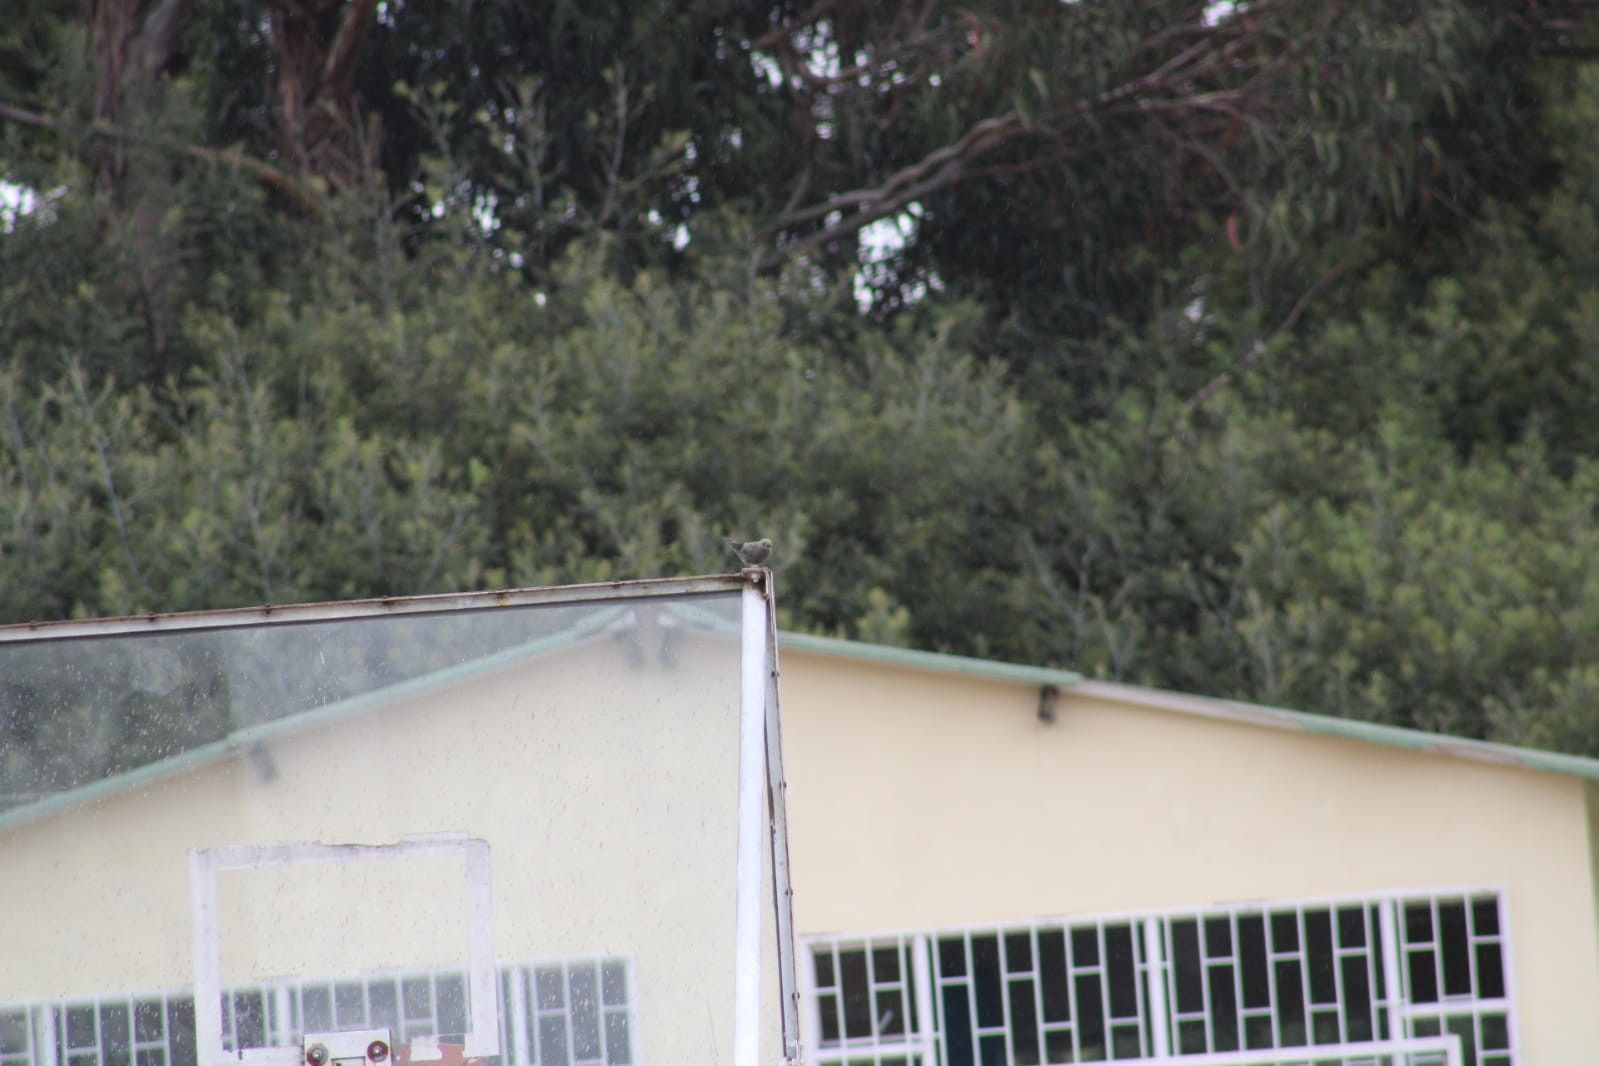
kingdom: Animalia
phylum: Chordata
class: Aves
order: Passeriformes
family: Thraupidae
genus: Thraupis
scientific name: Thraupis palmarum
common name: Palm tanager
